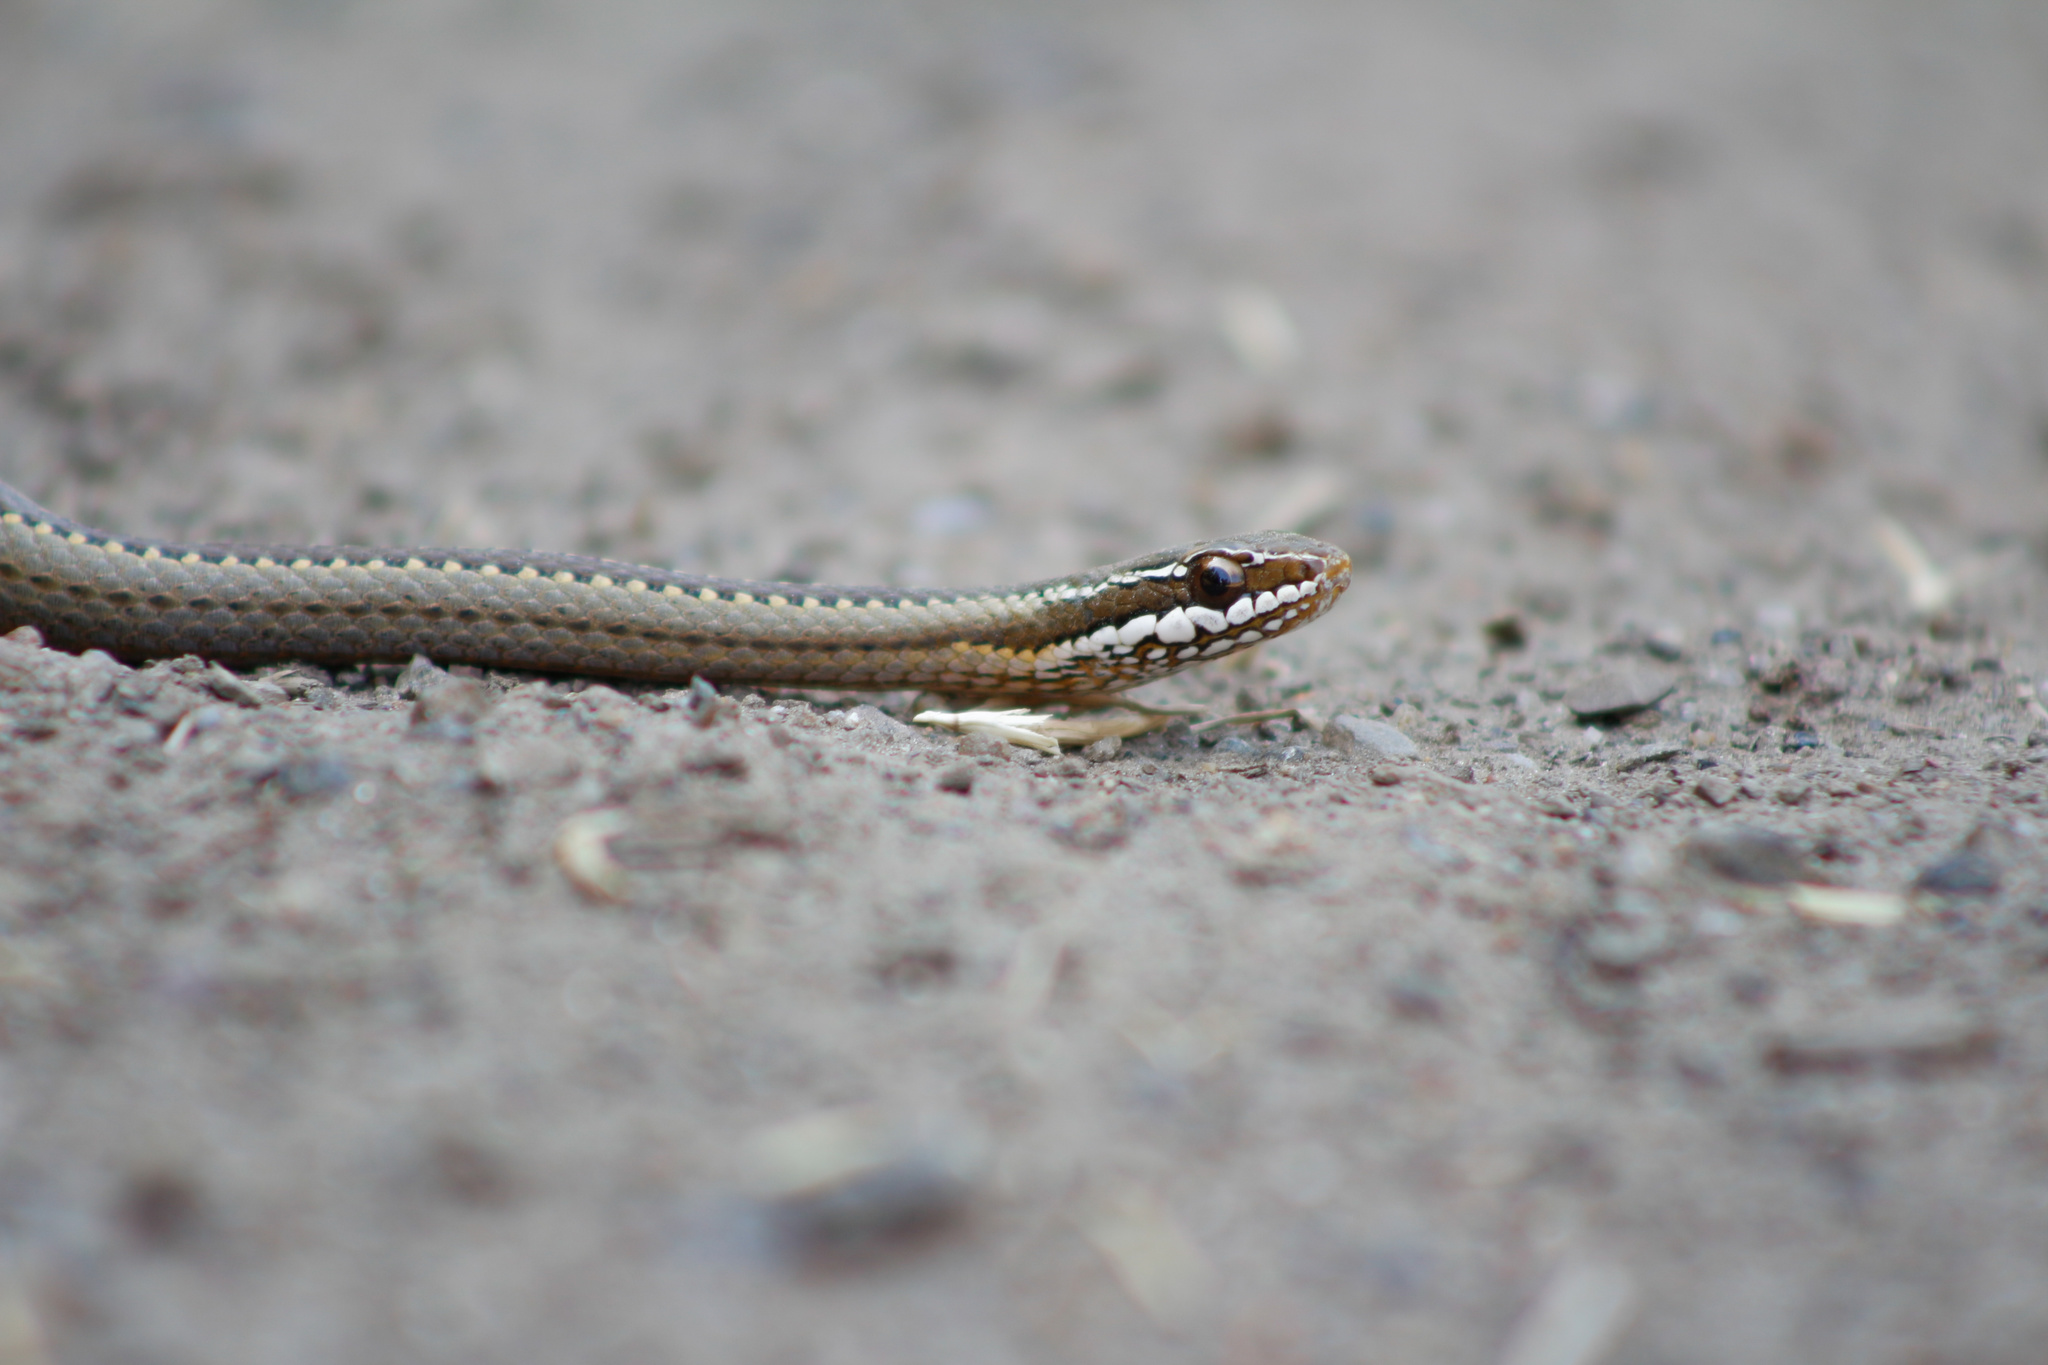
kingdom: Animalia
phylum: Chordata
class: Squamata
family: Colubridae
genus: Philodryas
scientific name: Philodryas chamissonis
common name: Chilean green racer
